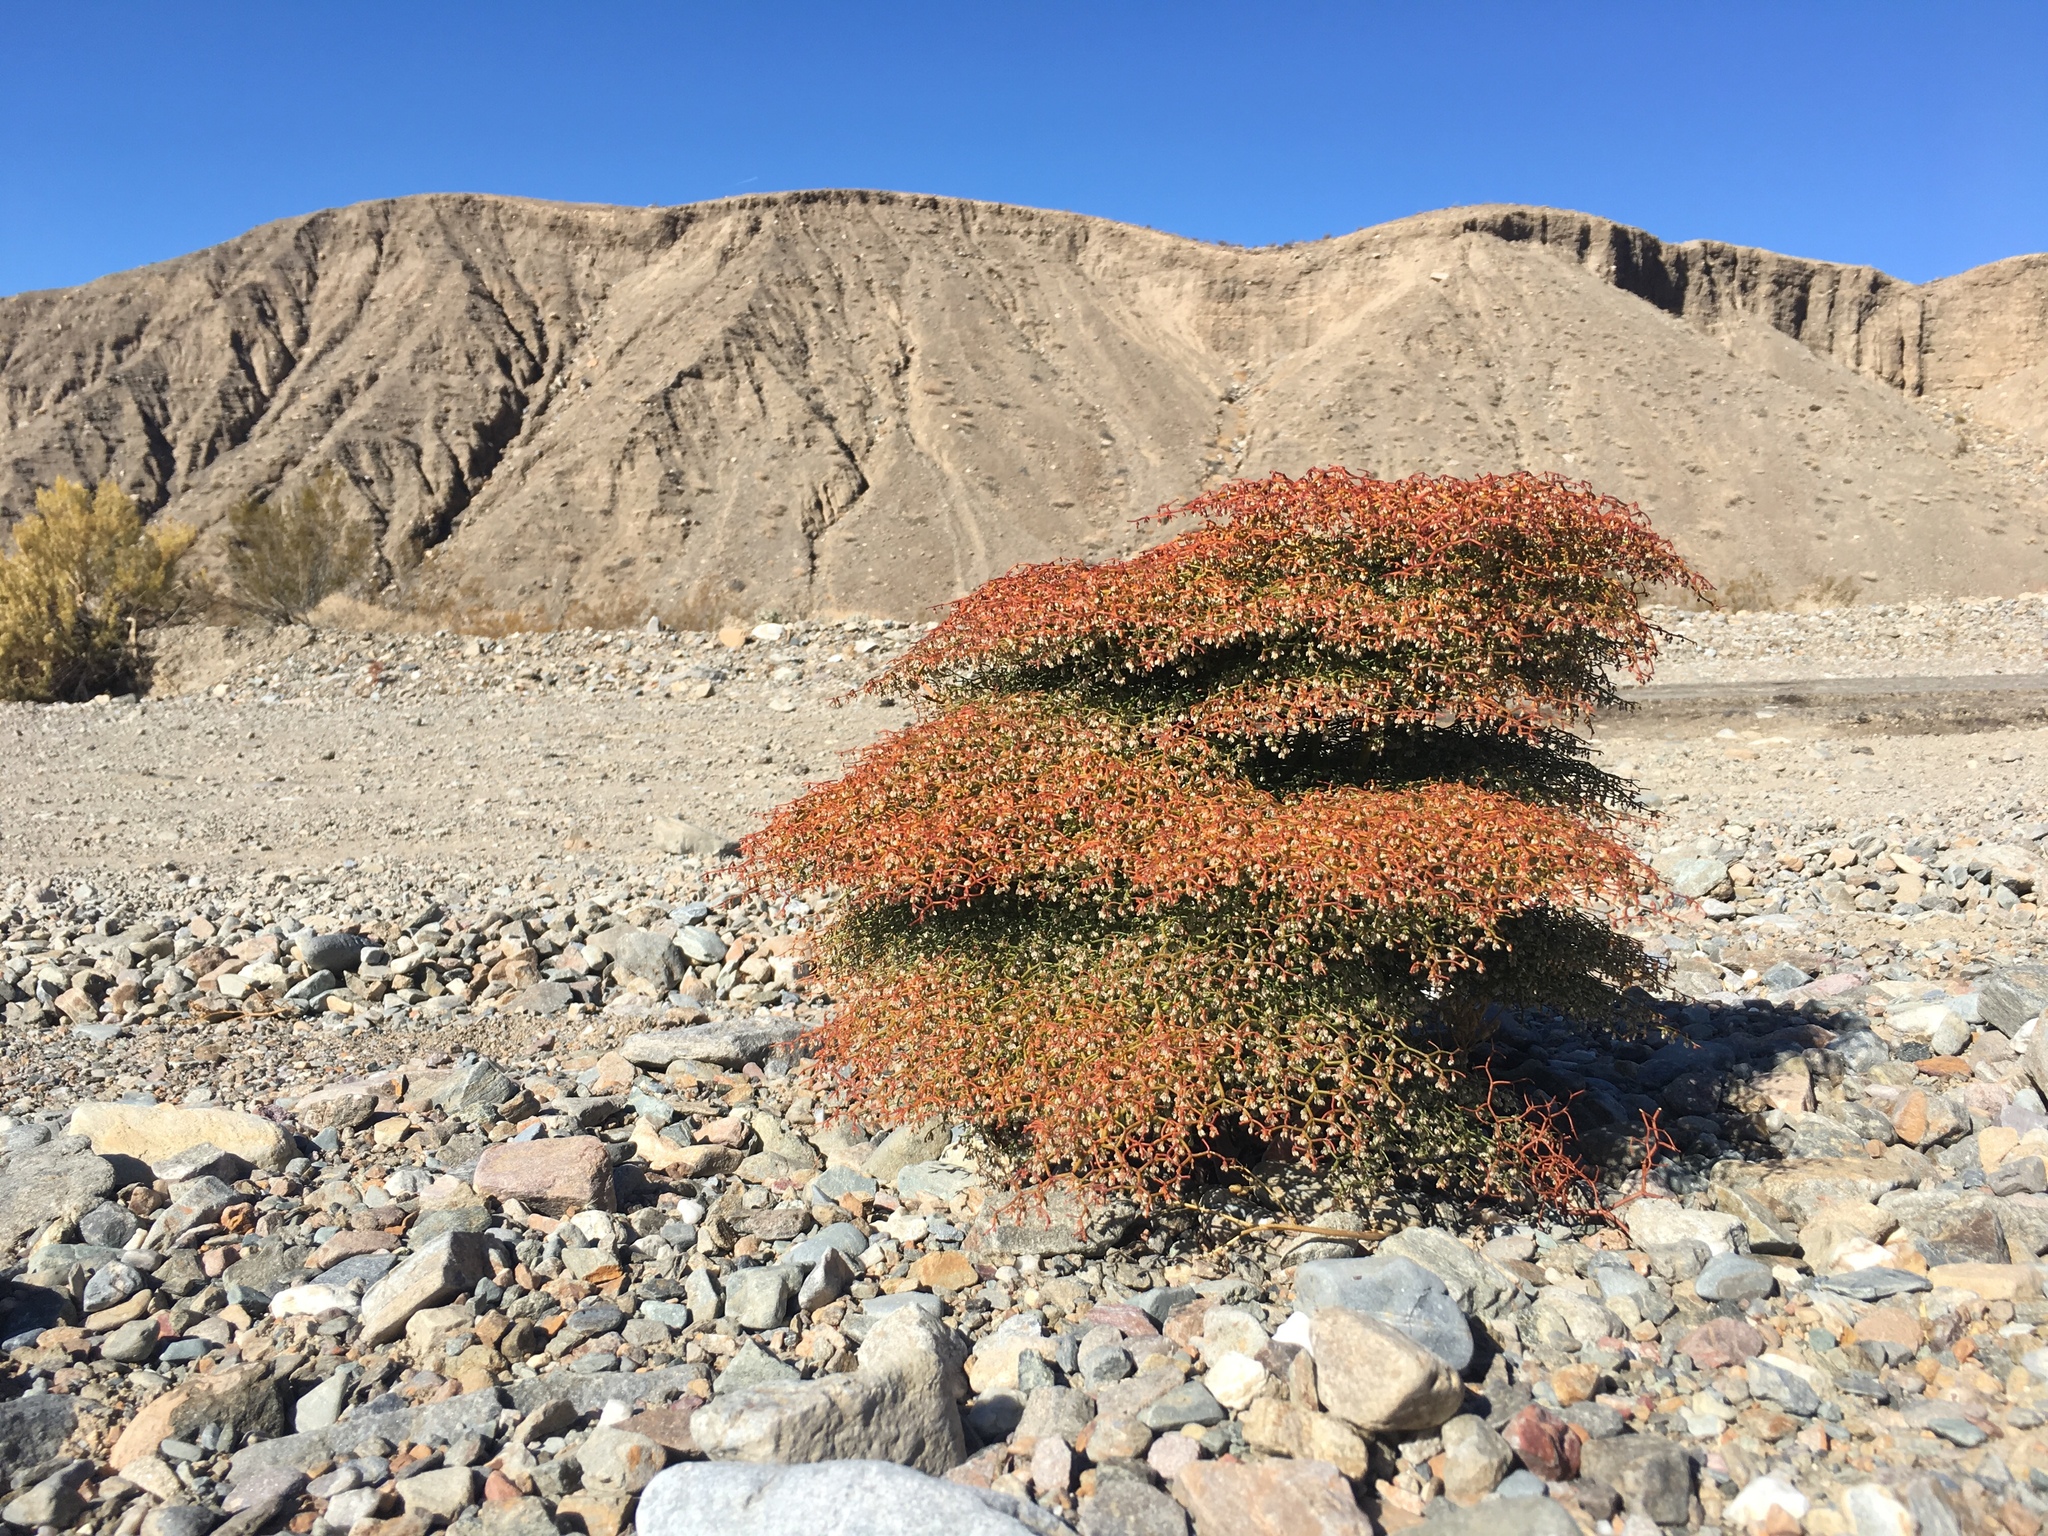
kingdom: Plantae
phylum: Tracheophyta
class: Magnoliopsida
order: Caryophyllales
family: Polygonaceae
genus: Eriogonum
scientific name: Eriogonum rixfordii
